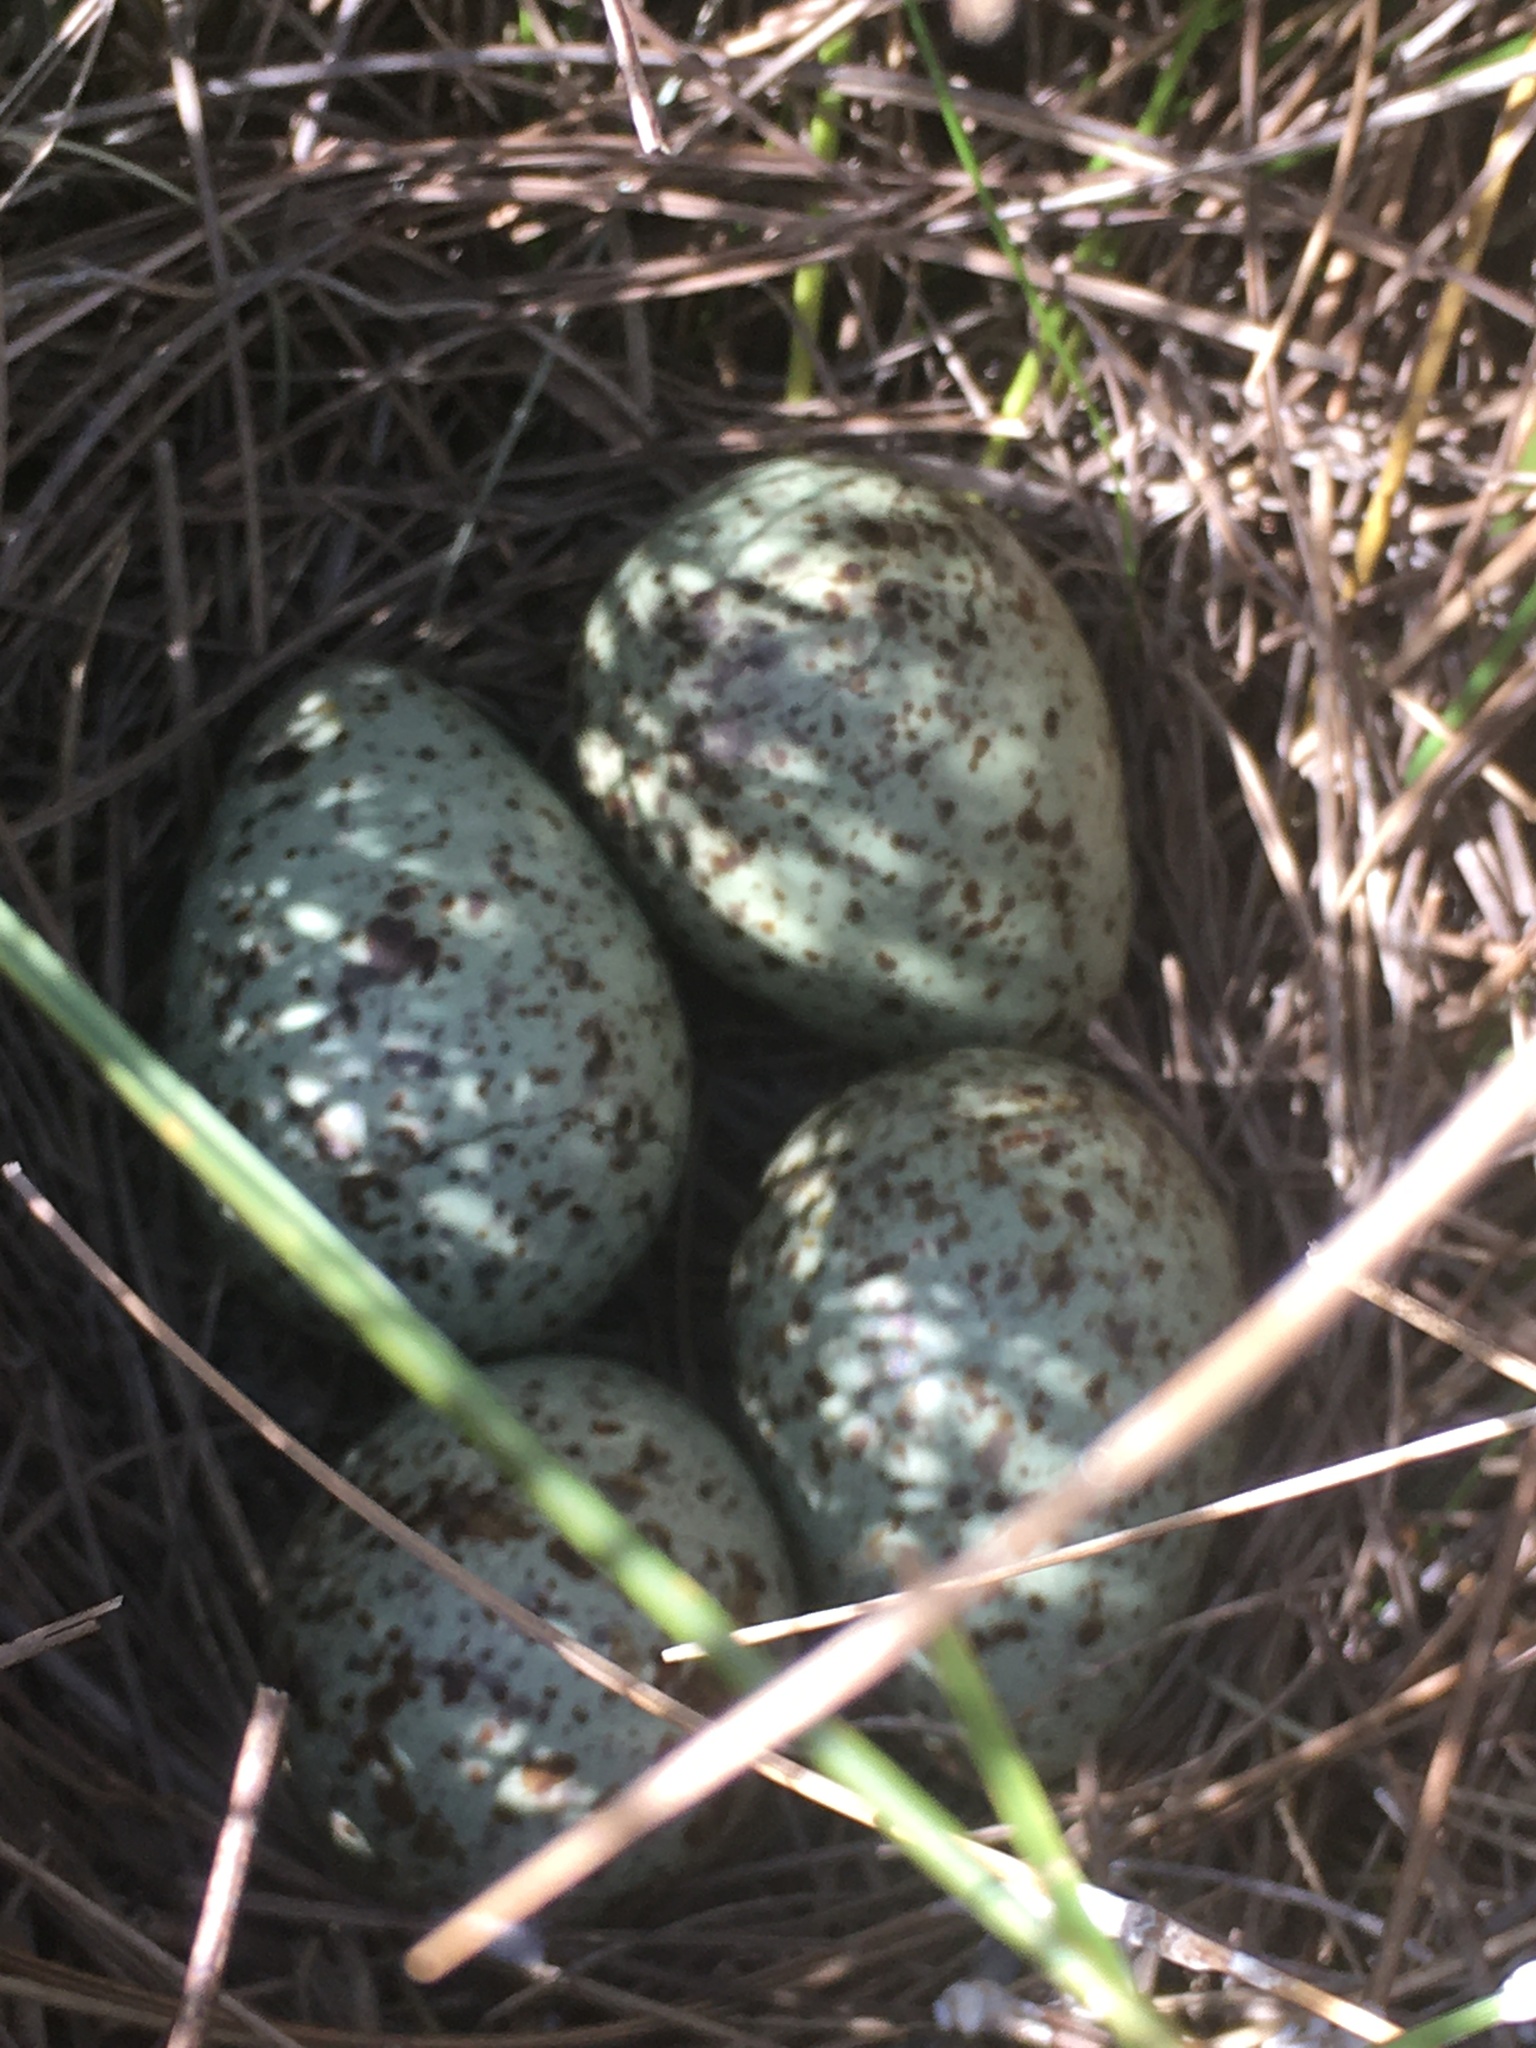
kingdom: Animalia
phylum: Chordata
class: Aves
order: Charadriiformes
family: Scolopacidae
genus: Tringa
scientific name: Tringa semipalmata
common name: Willet
